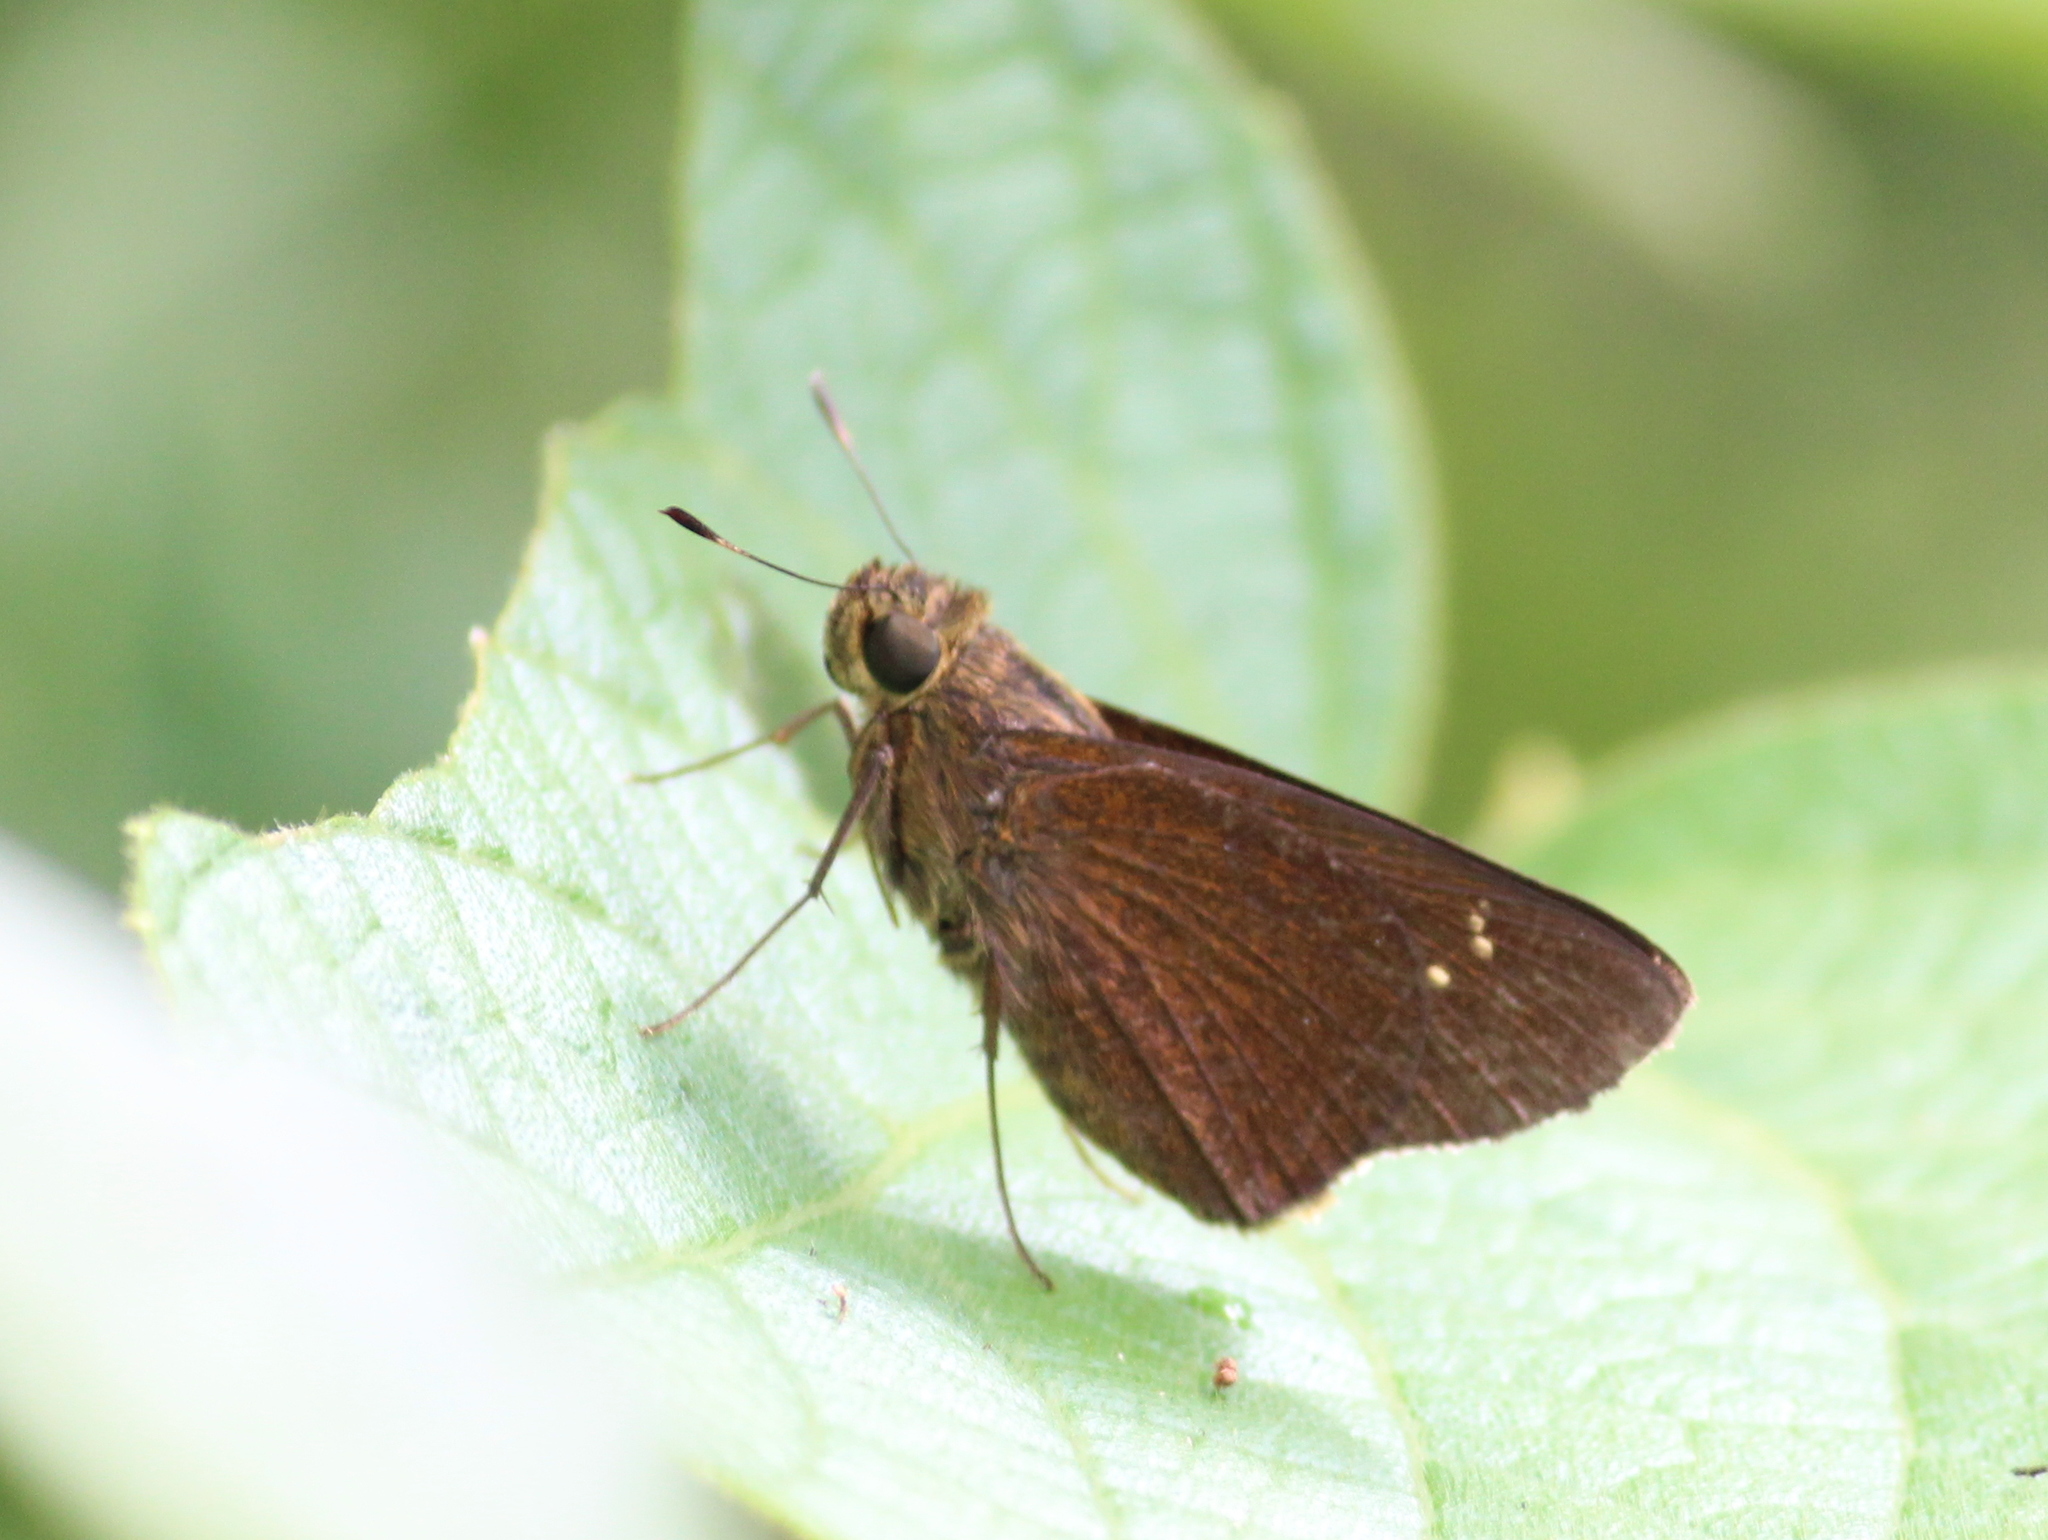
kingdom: Animalia
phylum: Arthropoda
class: Insecta
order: Lepidoptera
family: Hesperiidae
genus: Caltoris
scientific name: Caltoris kumara
